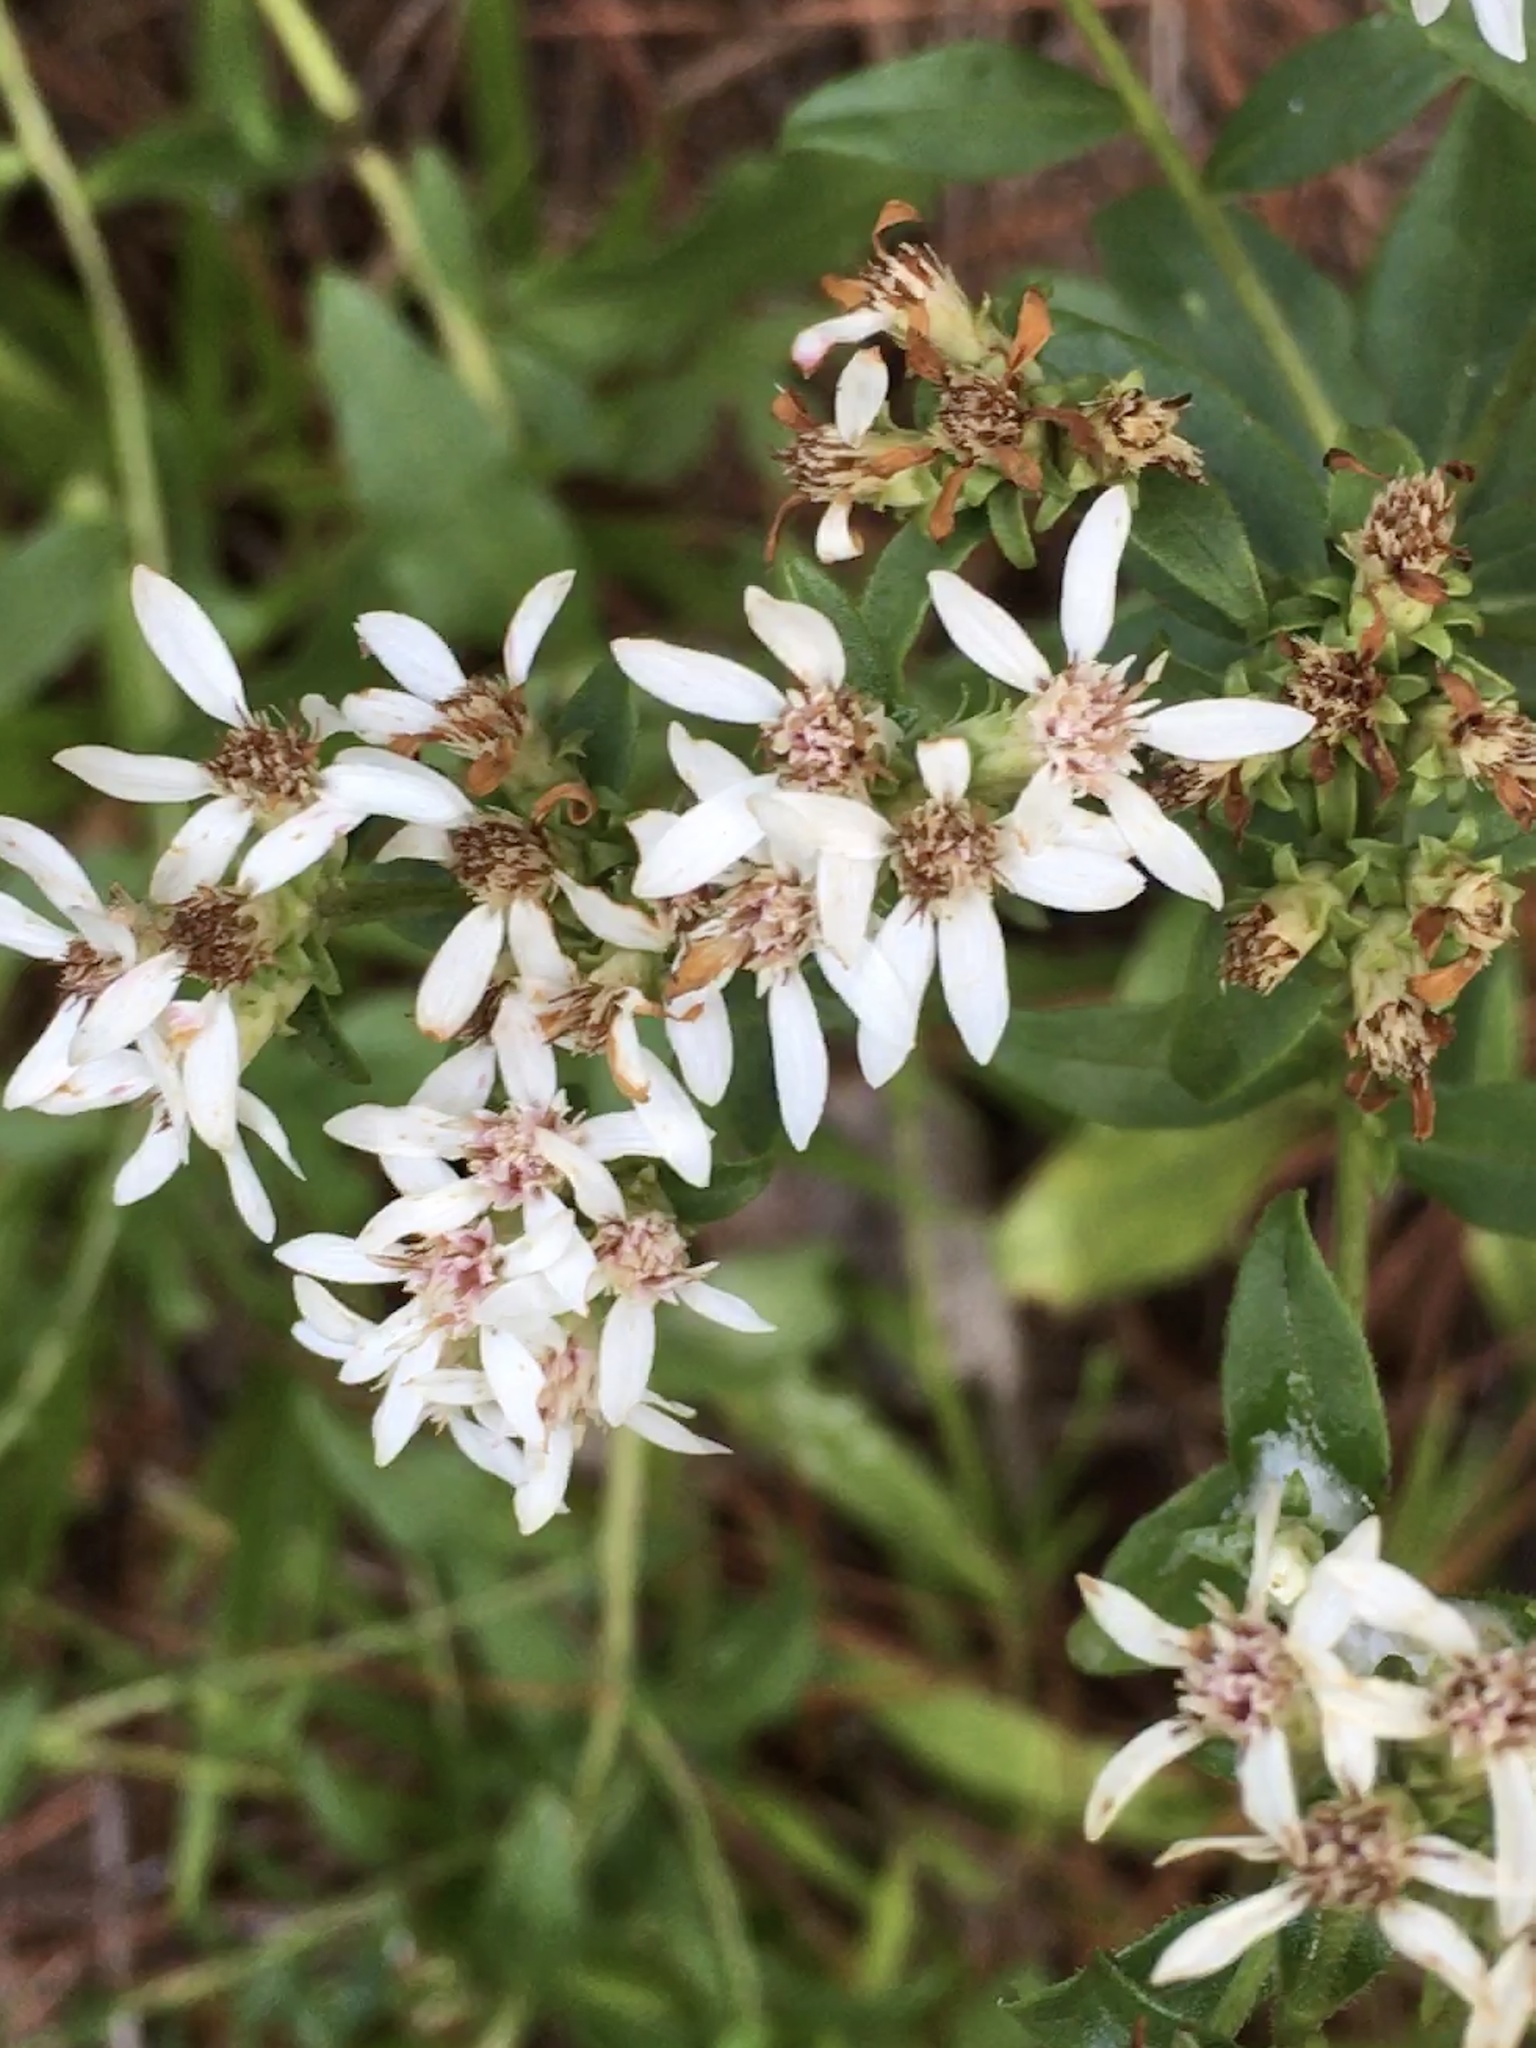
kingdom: Plantae
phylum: Tracheophyta
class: Magnoliopsida
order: Asterales
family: Asteraceae
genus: Sericocarpus
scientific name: Sericocarpus asteroides
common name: Toothed white-top aster
